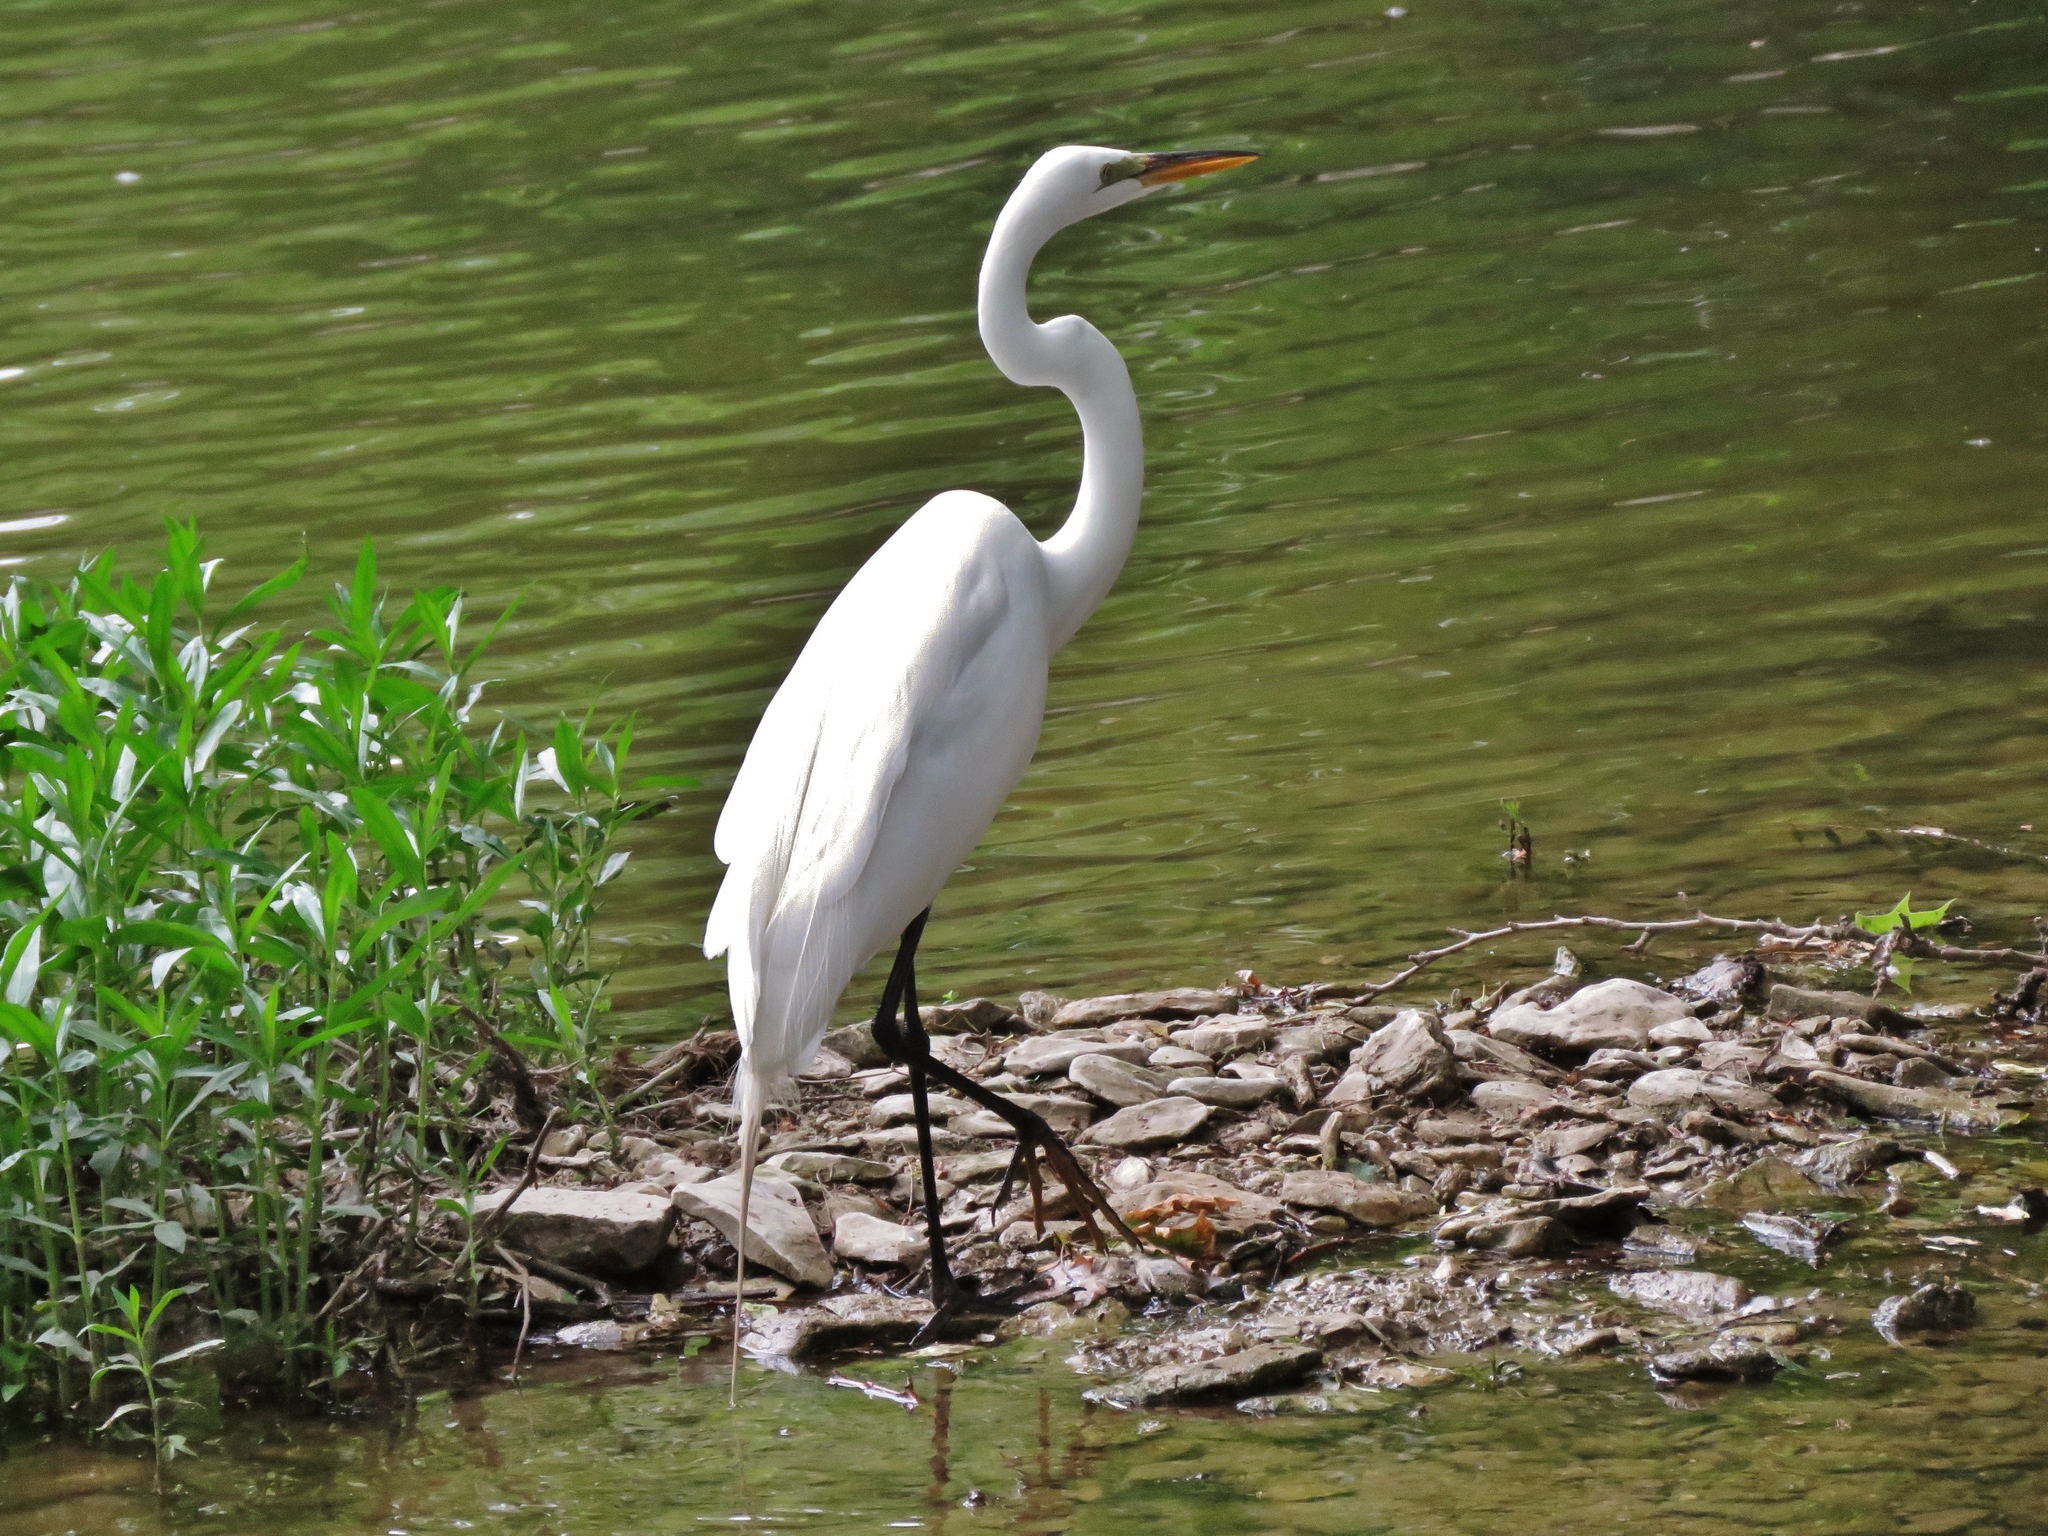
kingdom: Animalia
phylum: Chordata
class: Aves
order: Pelecaniformes
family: Ardeidae
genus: Ardea
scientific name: Ardea alba
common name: Great egret
